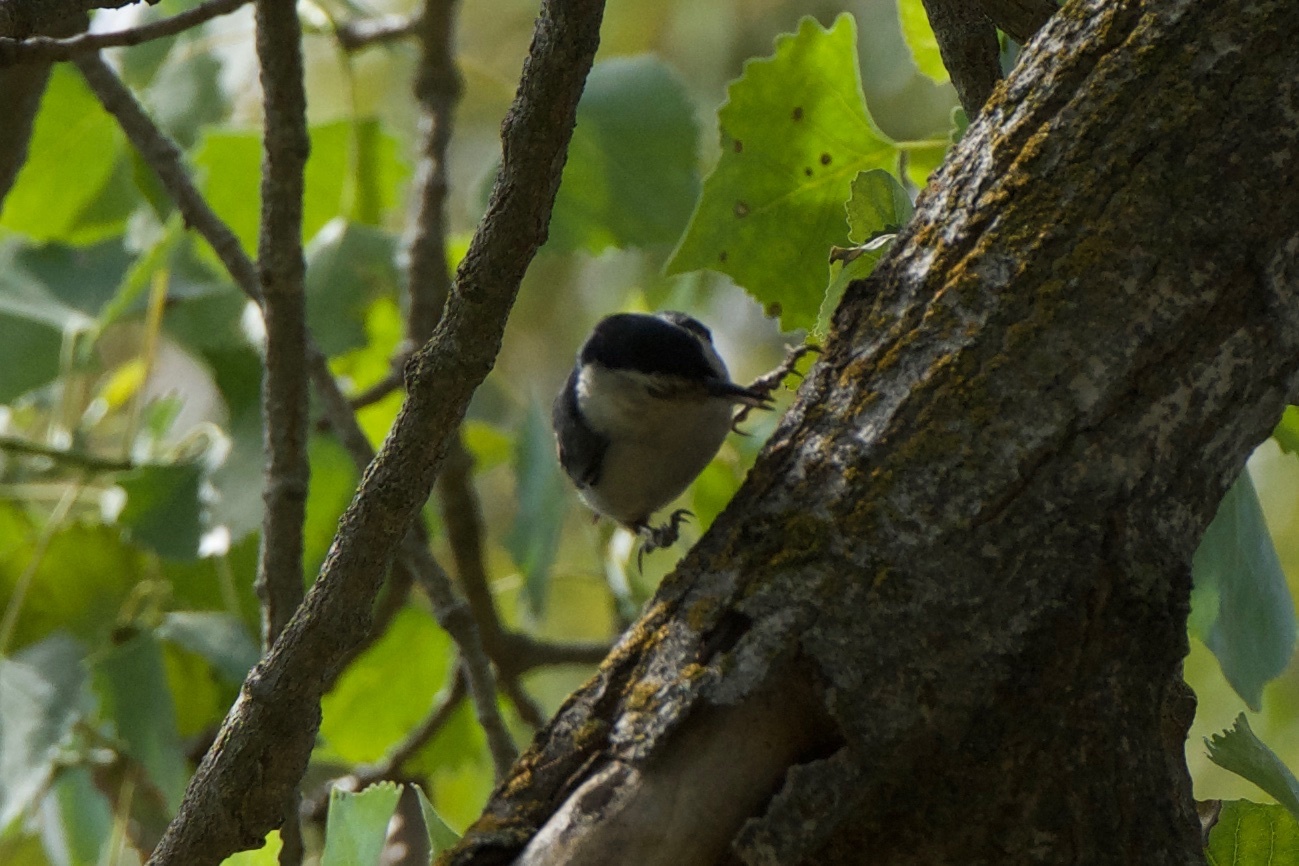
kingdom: Animalia
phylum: Chordata
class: Aves
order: Passeriformes
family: Sittidae
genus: Sitta
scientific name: Sitta carolinensis
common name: White-breasted nuthatch
